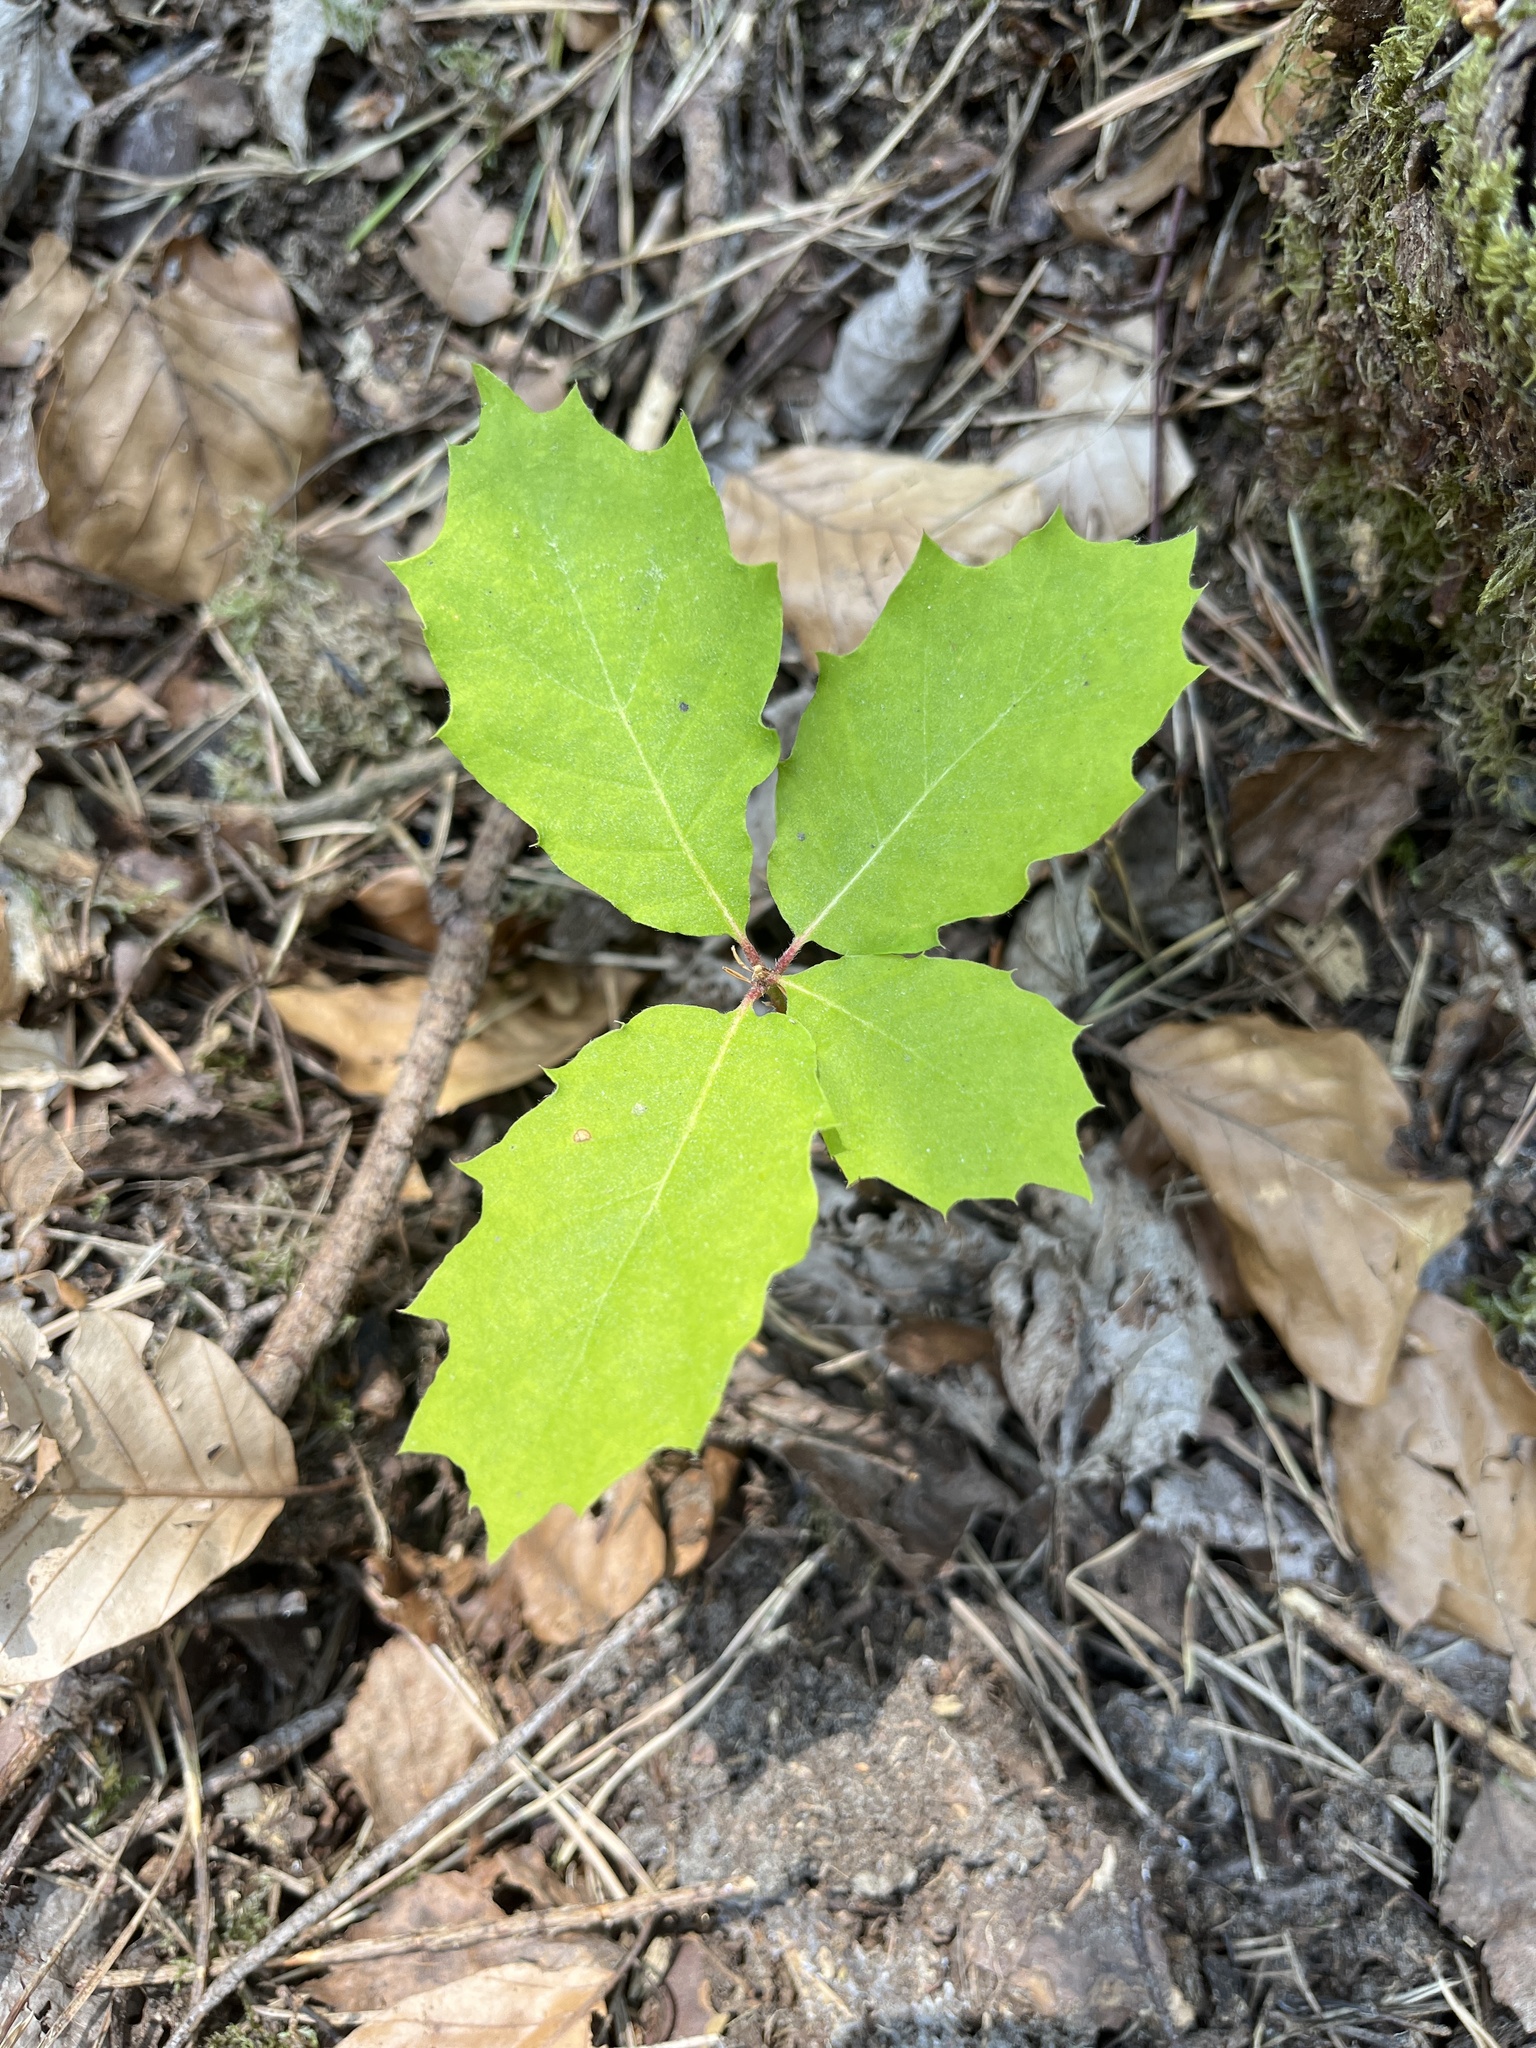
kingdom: Plantae
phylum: Tracheophyta
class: Magnoliopsida
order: Fagales
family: Fagaceae
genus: Quercus
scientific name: Quercus rubra
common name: Red oak
